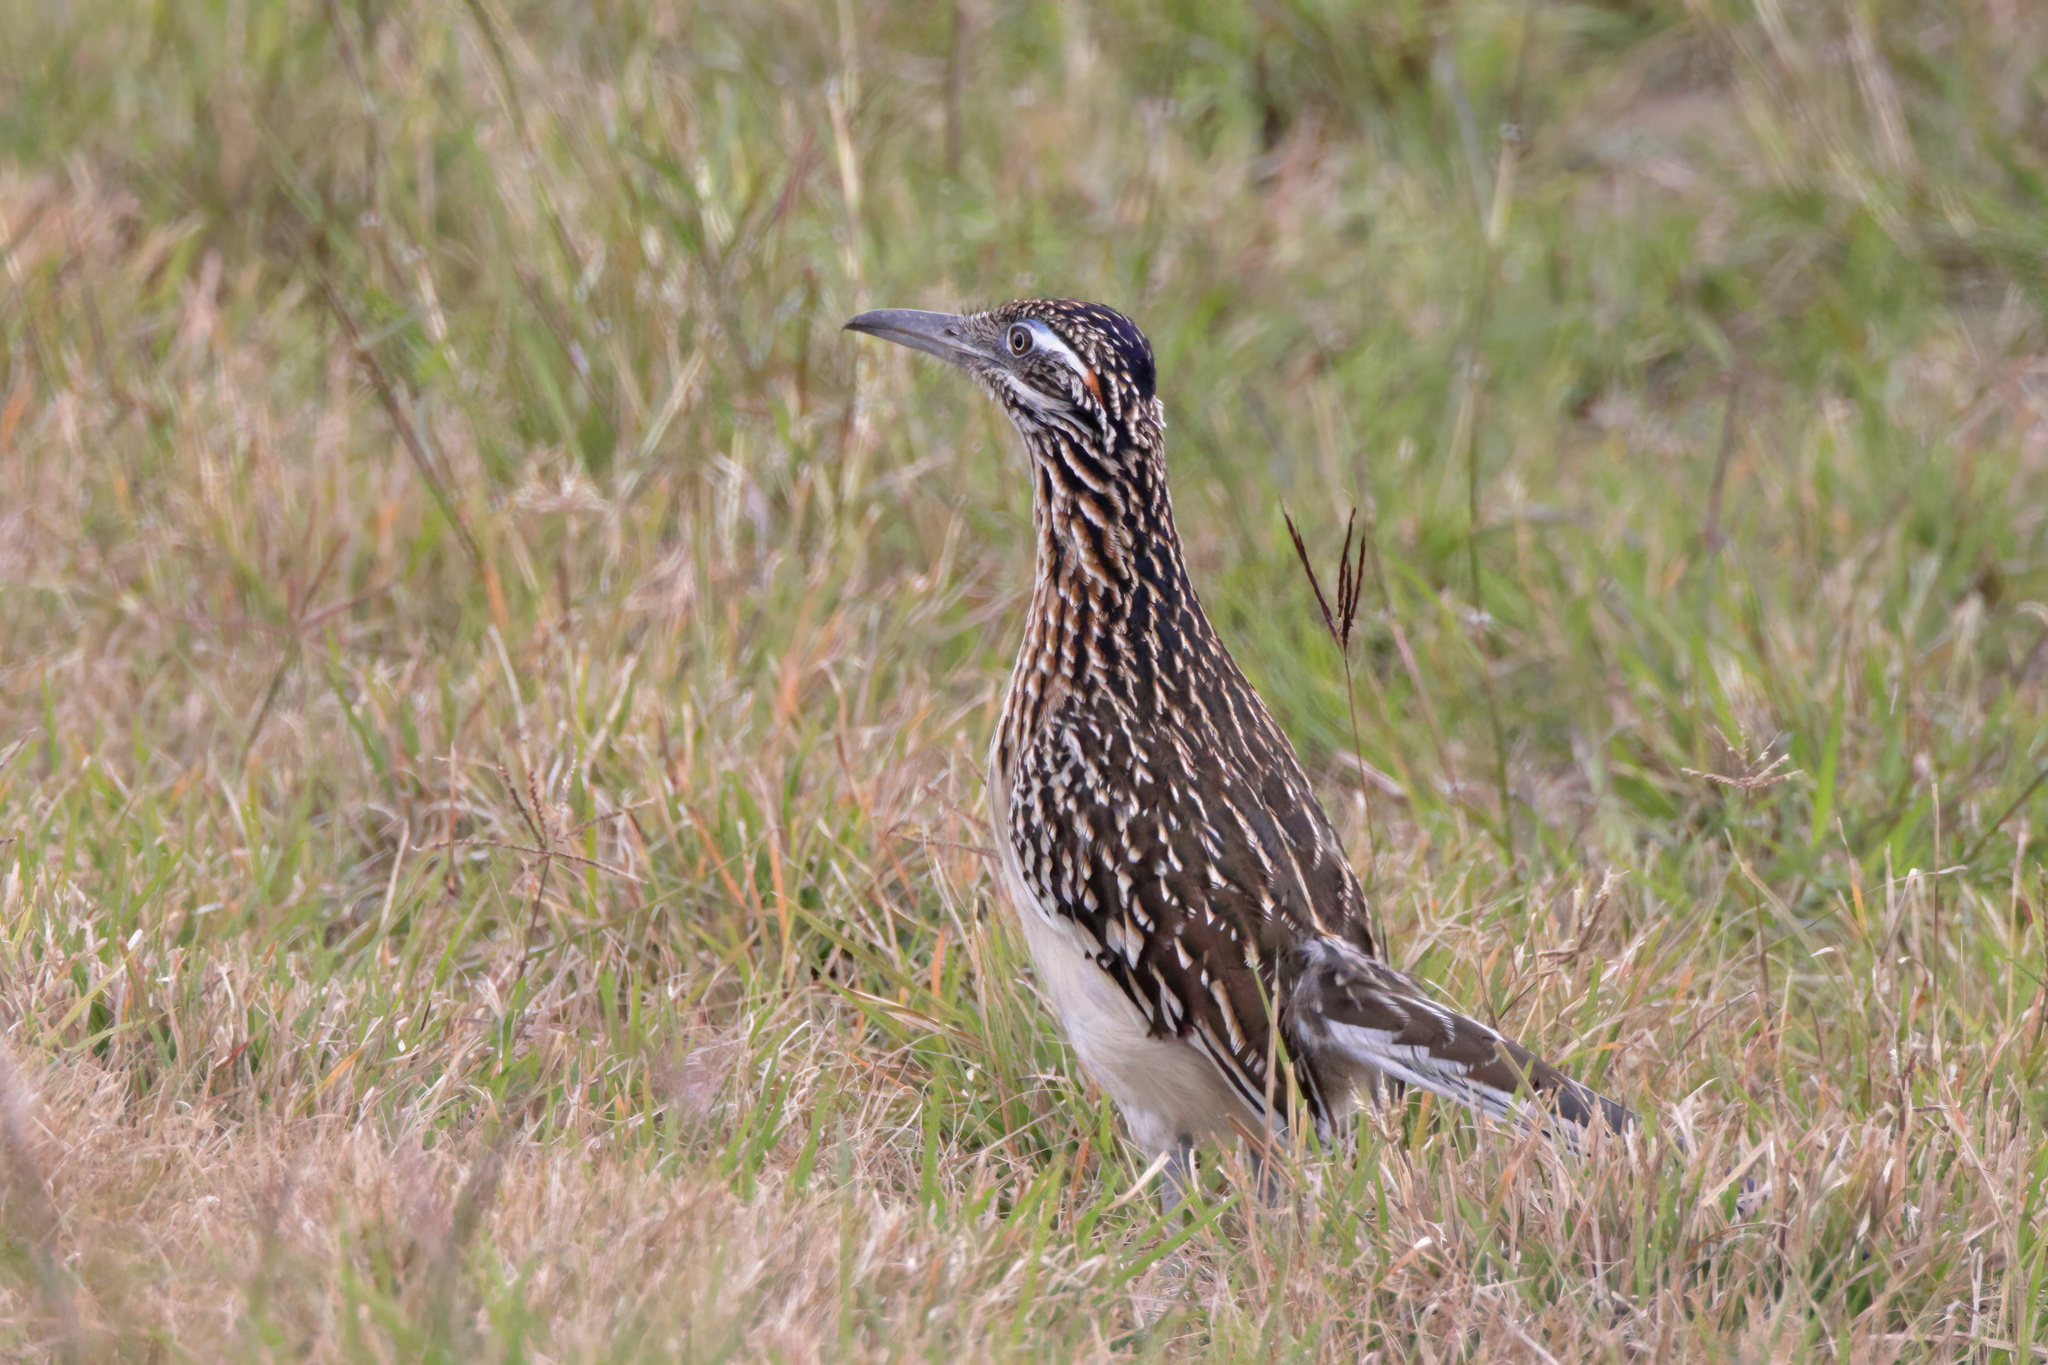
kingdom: Animalia
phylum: Chordata
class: Aves
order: Cuculiformes
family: Cuculidae
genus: Geococcyx
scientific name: Geococcyx californianus
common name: Greater roadrunner
